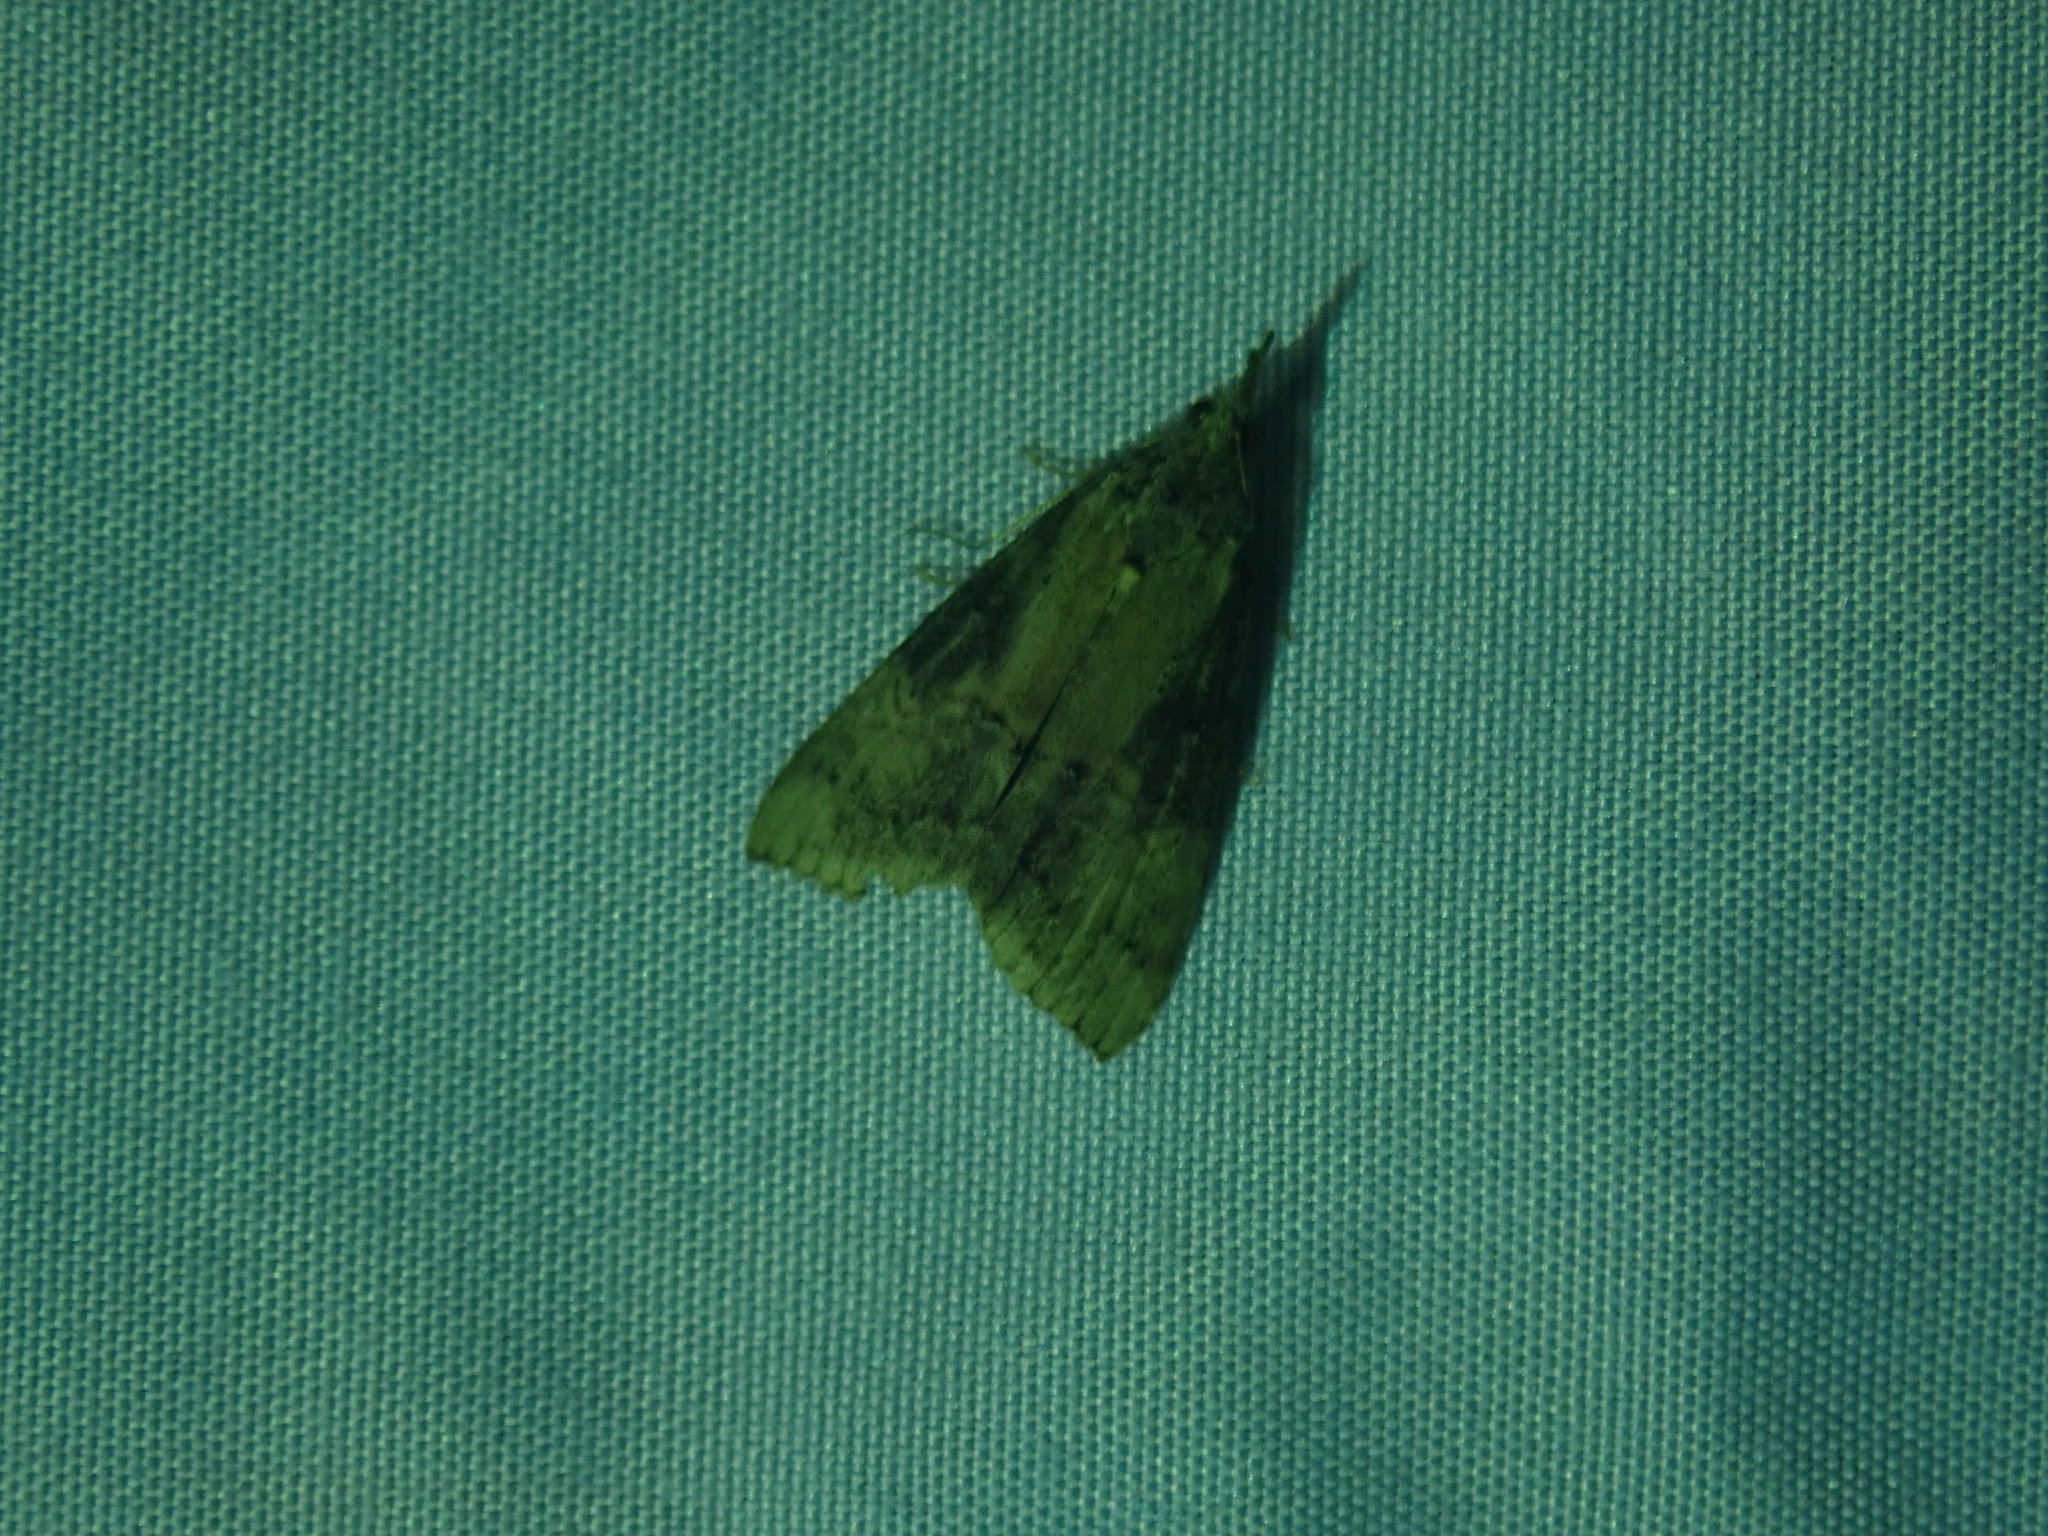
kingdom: Animalia
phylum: Arthropoda
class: Insecta
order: Lepidoptera
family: Erebidae
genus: Hypena
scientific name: Hypena scabra
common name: Green cloverworm
